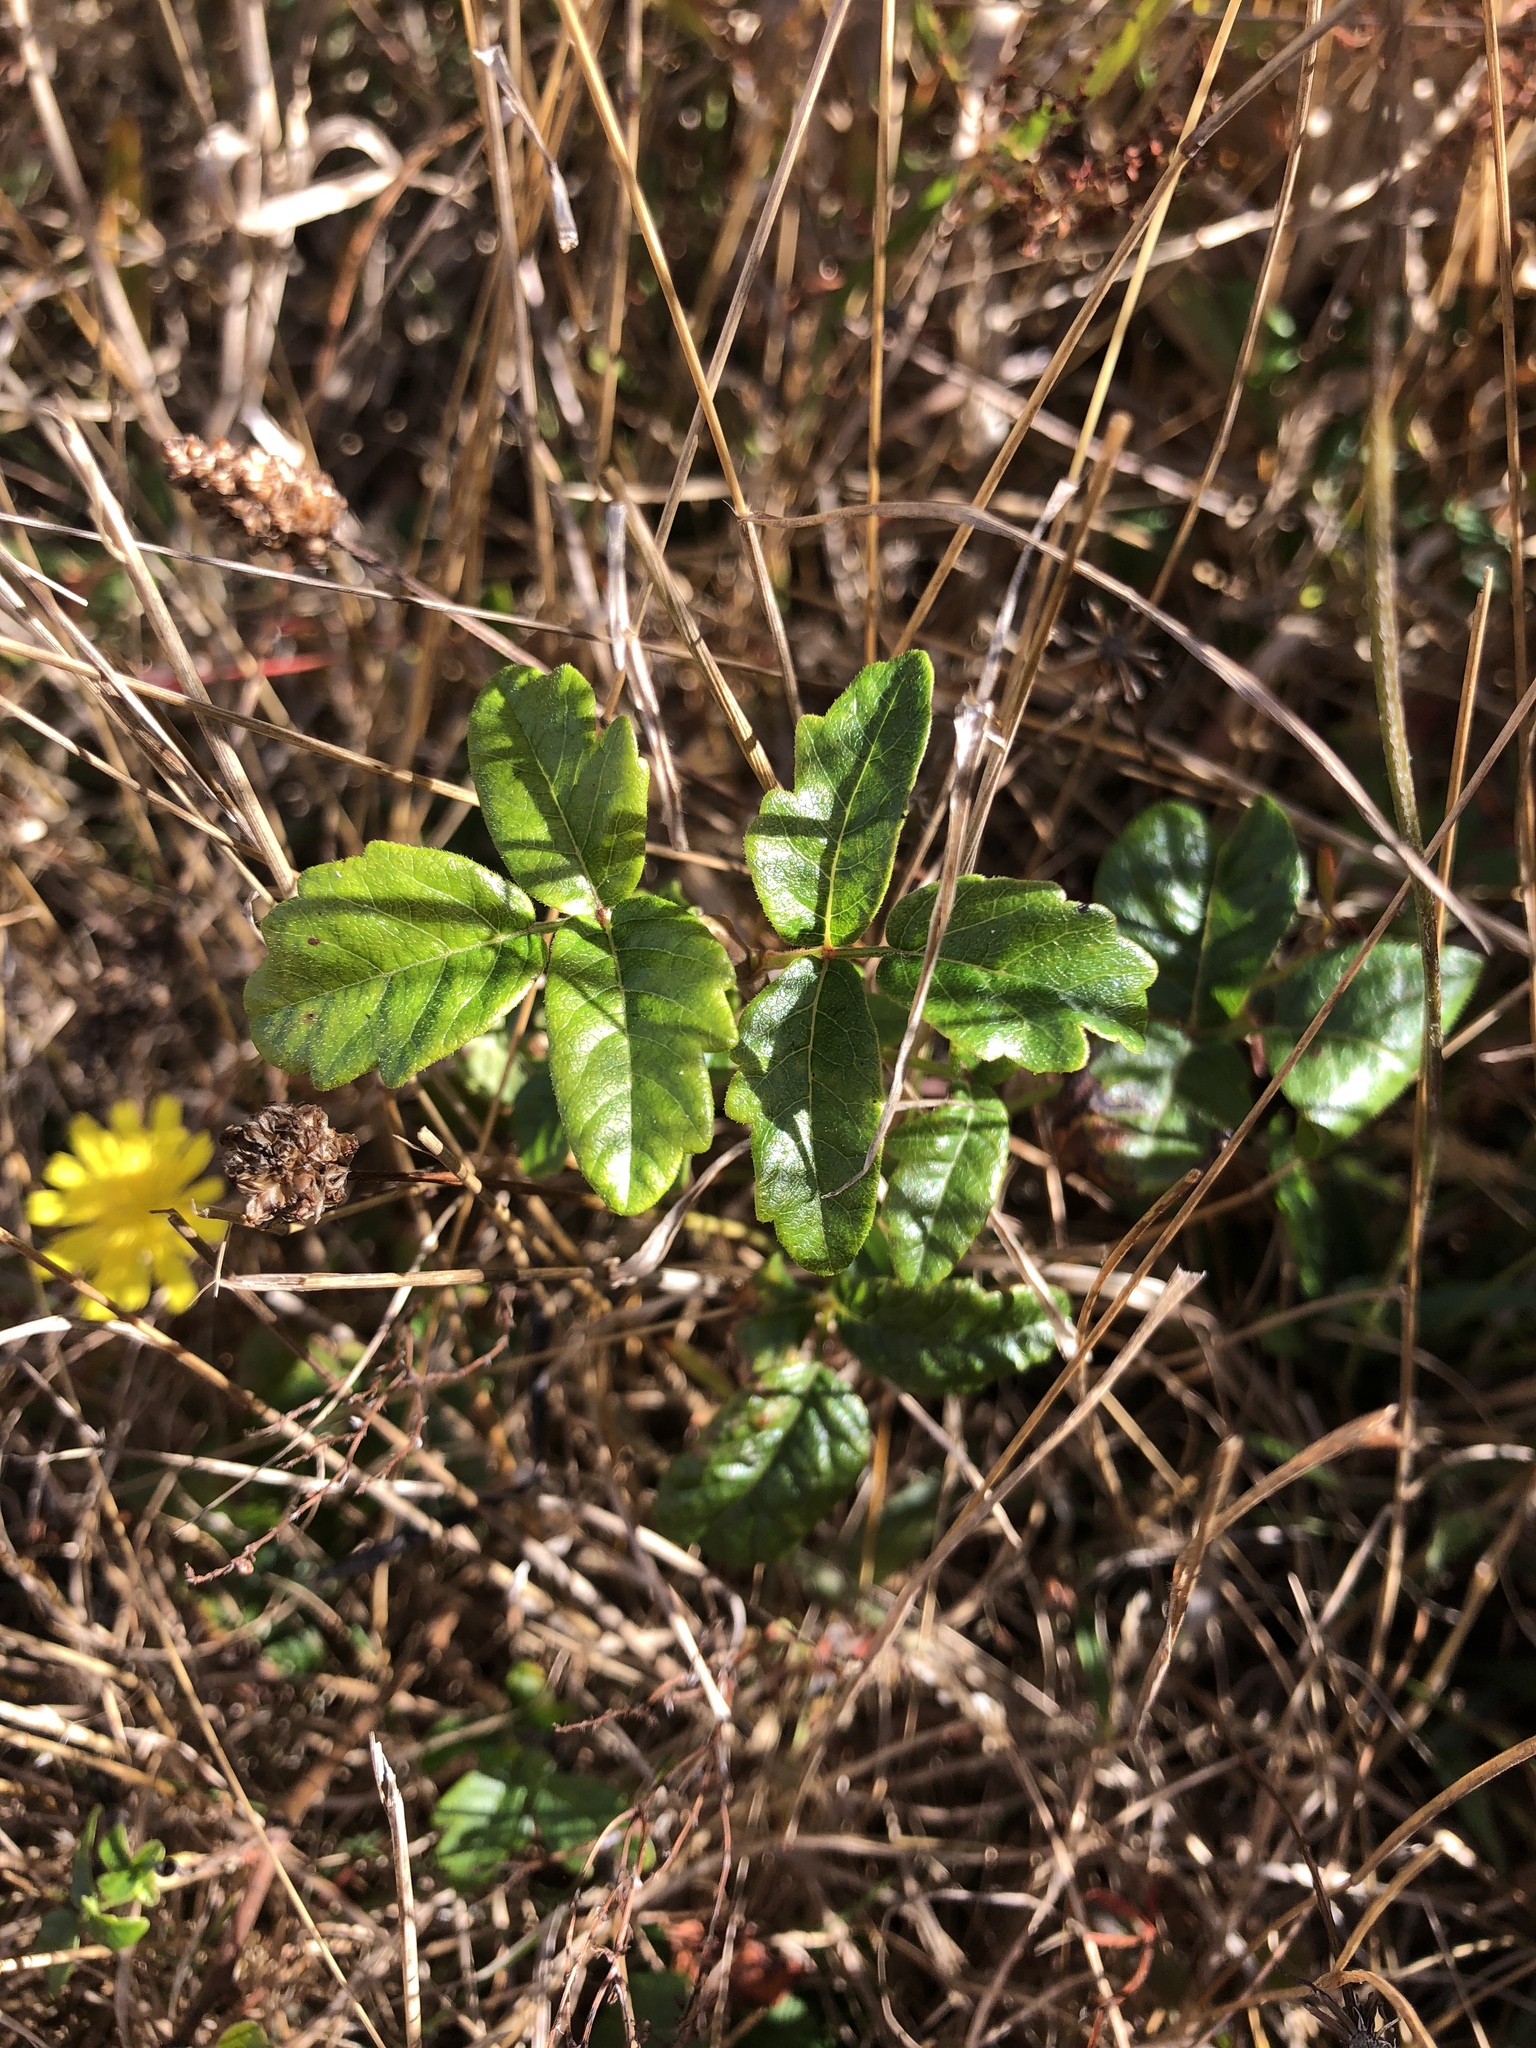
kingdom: Plantae
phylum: Tracheophyta
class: Magnoliopsida
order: Sapindales
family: Anacardiaceae
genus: Toxicodendron
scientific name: Toxicodendron diversilobum
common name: Pacific poison-oak
